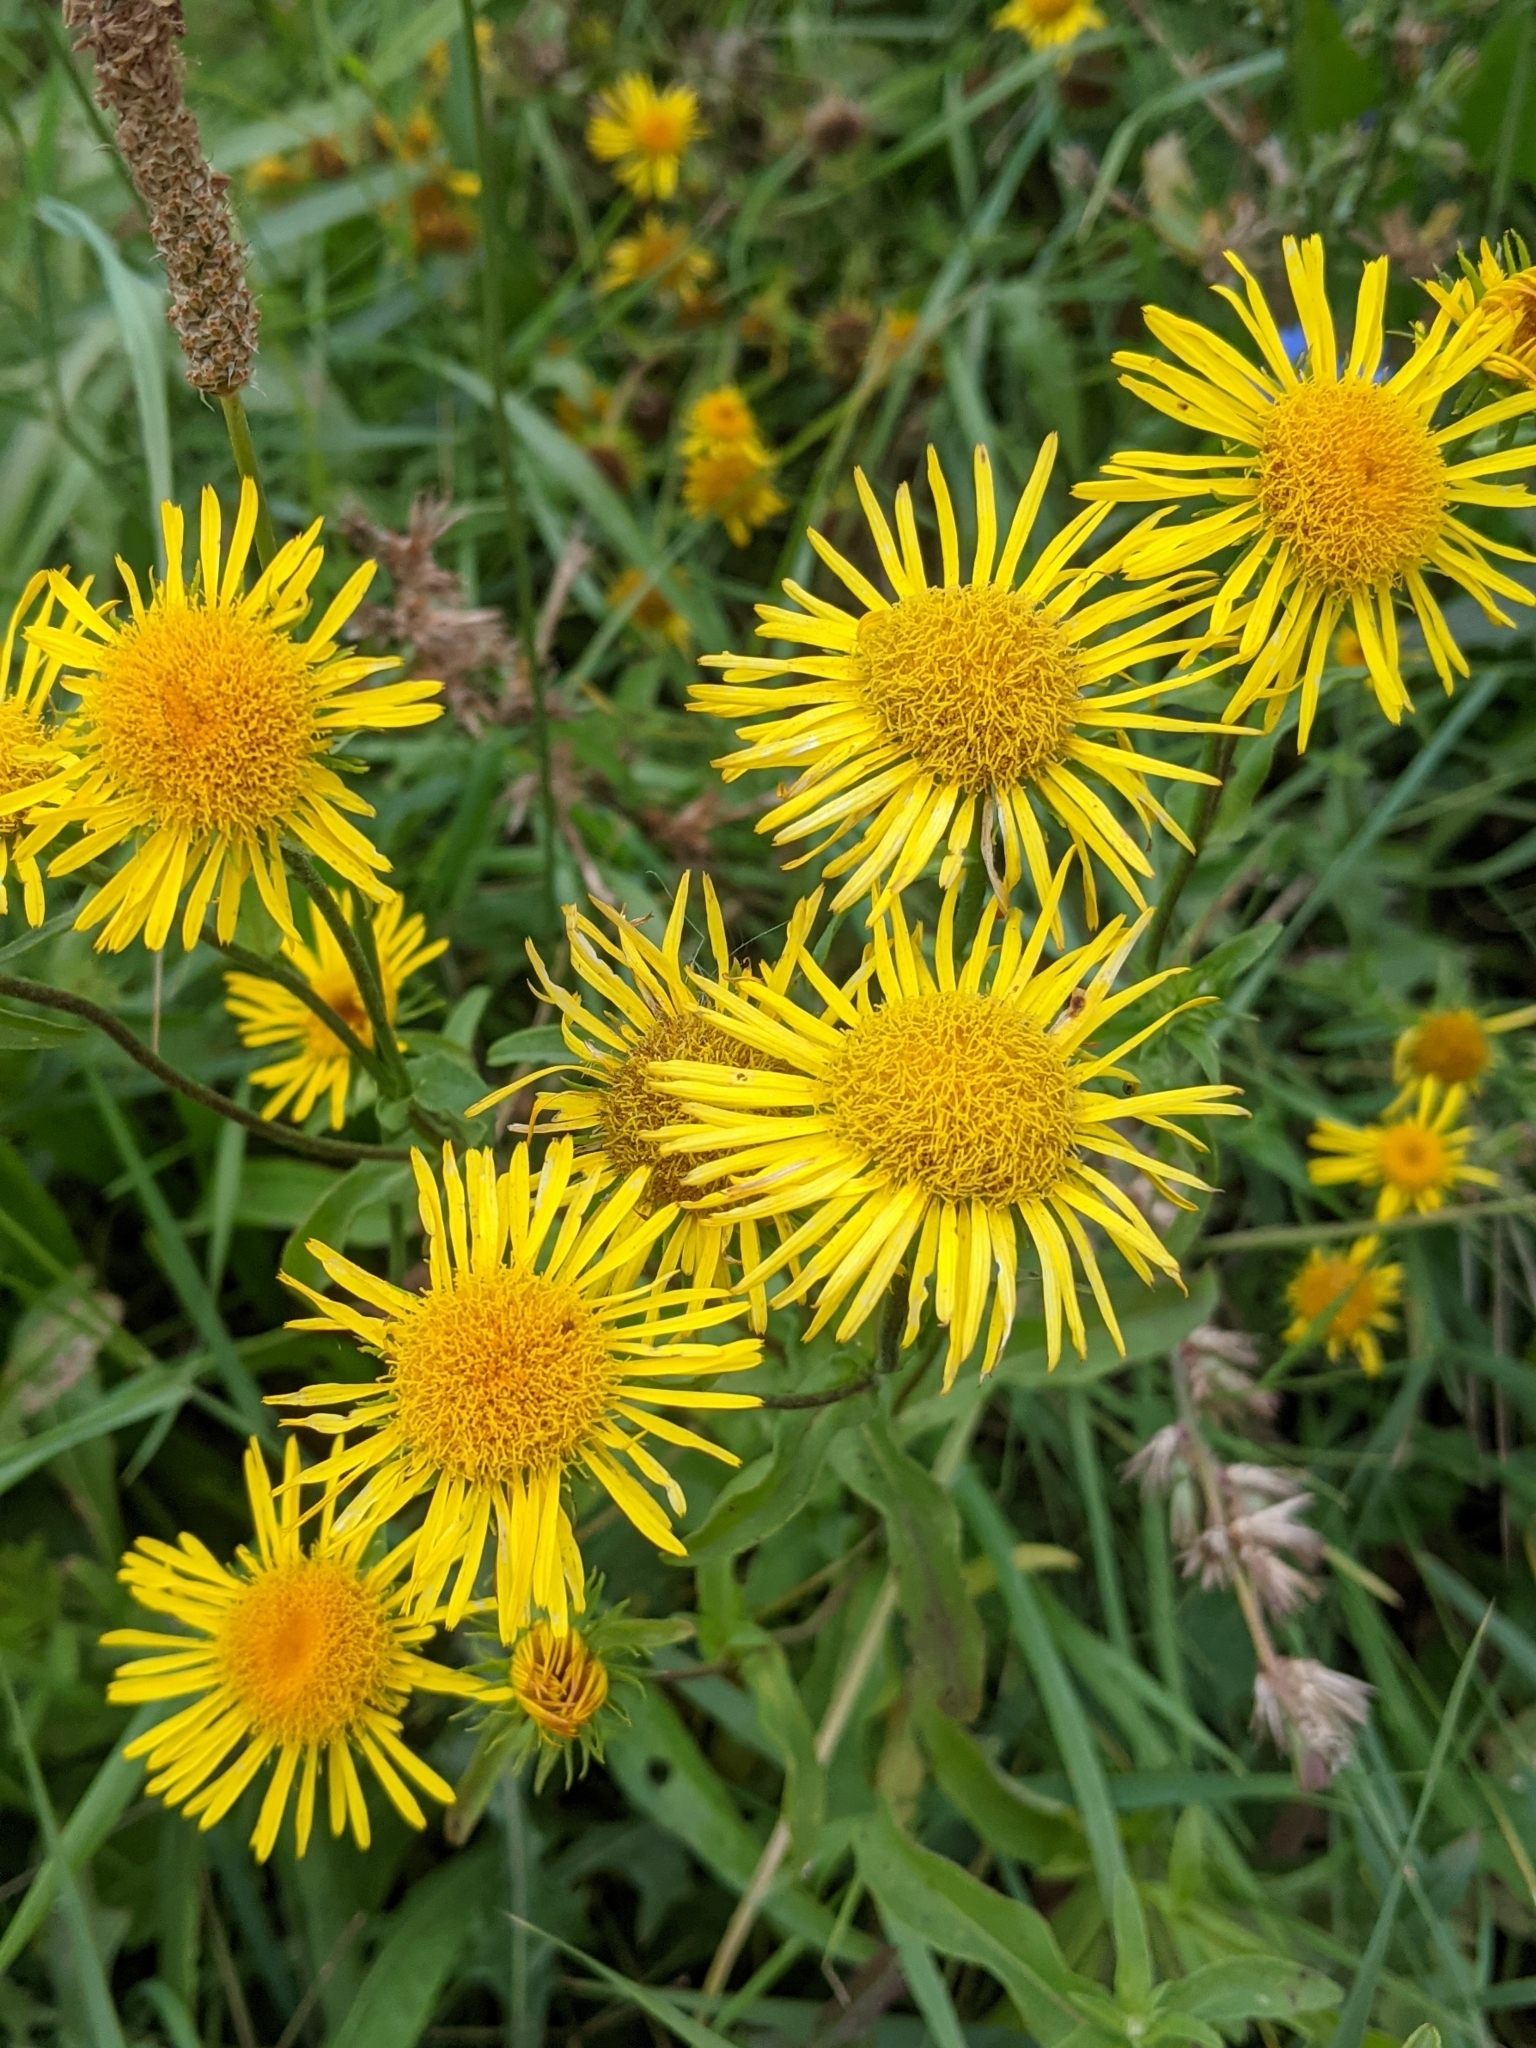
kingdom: Plantae
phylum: Tracheophyta
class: Magnoliopsida
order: Asterales
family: Asteraceae
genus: Pentanema
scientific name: Pentanema britannicum
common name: British elecampane
